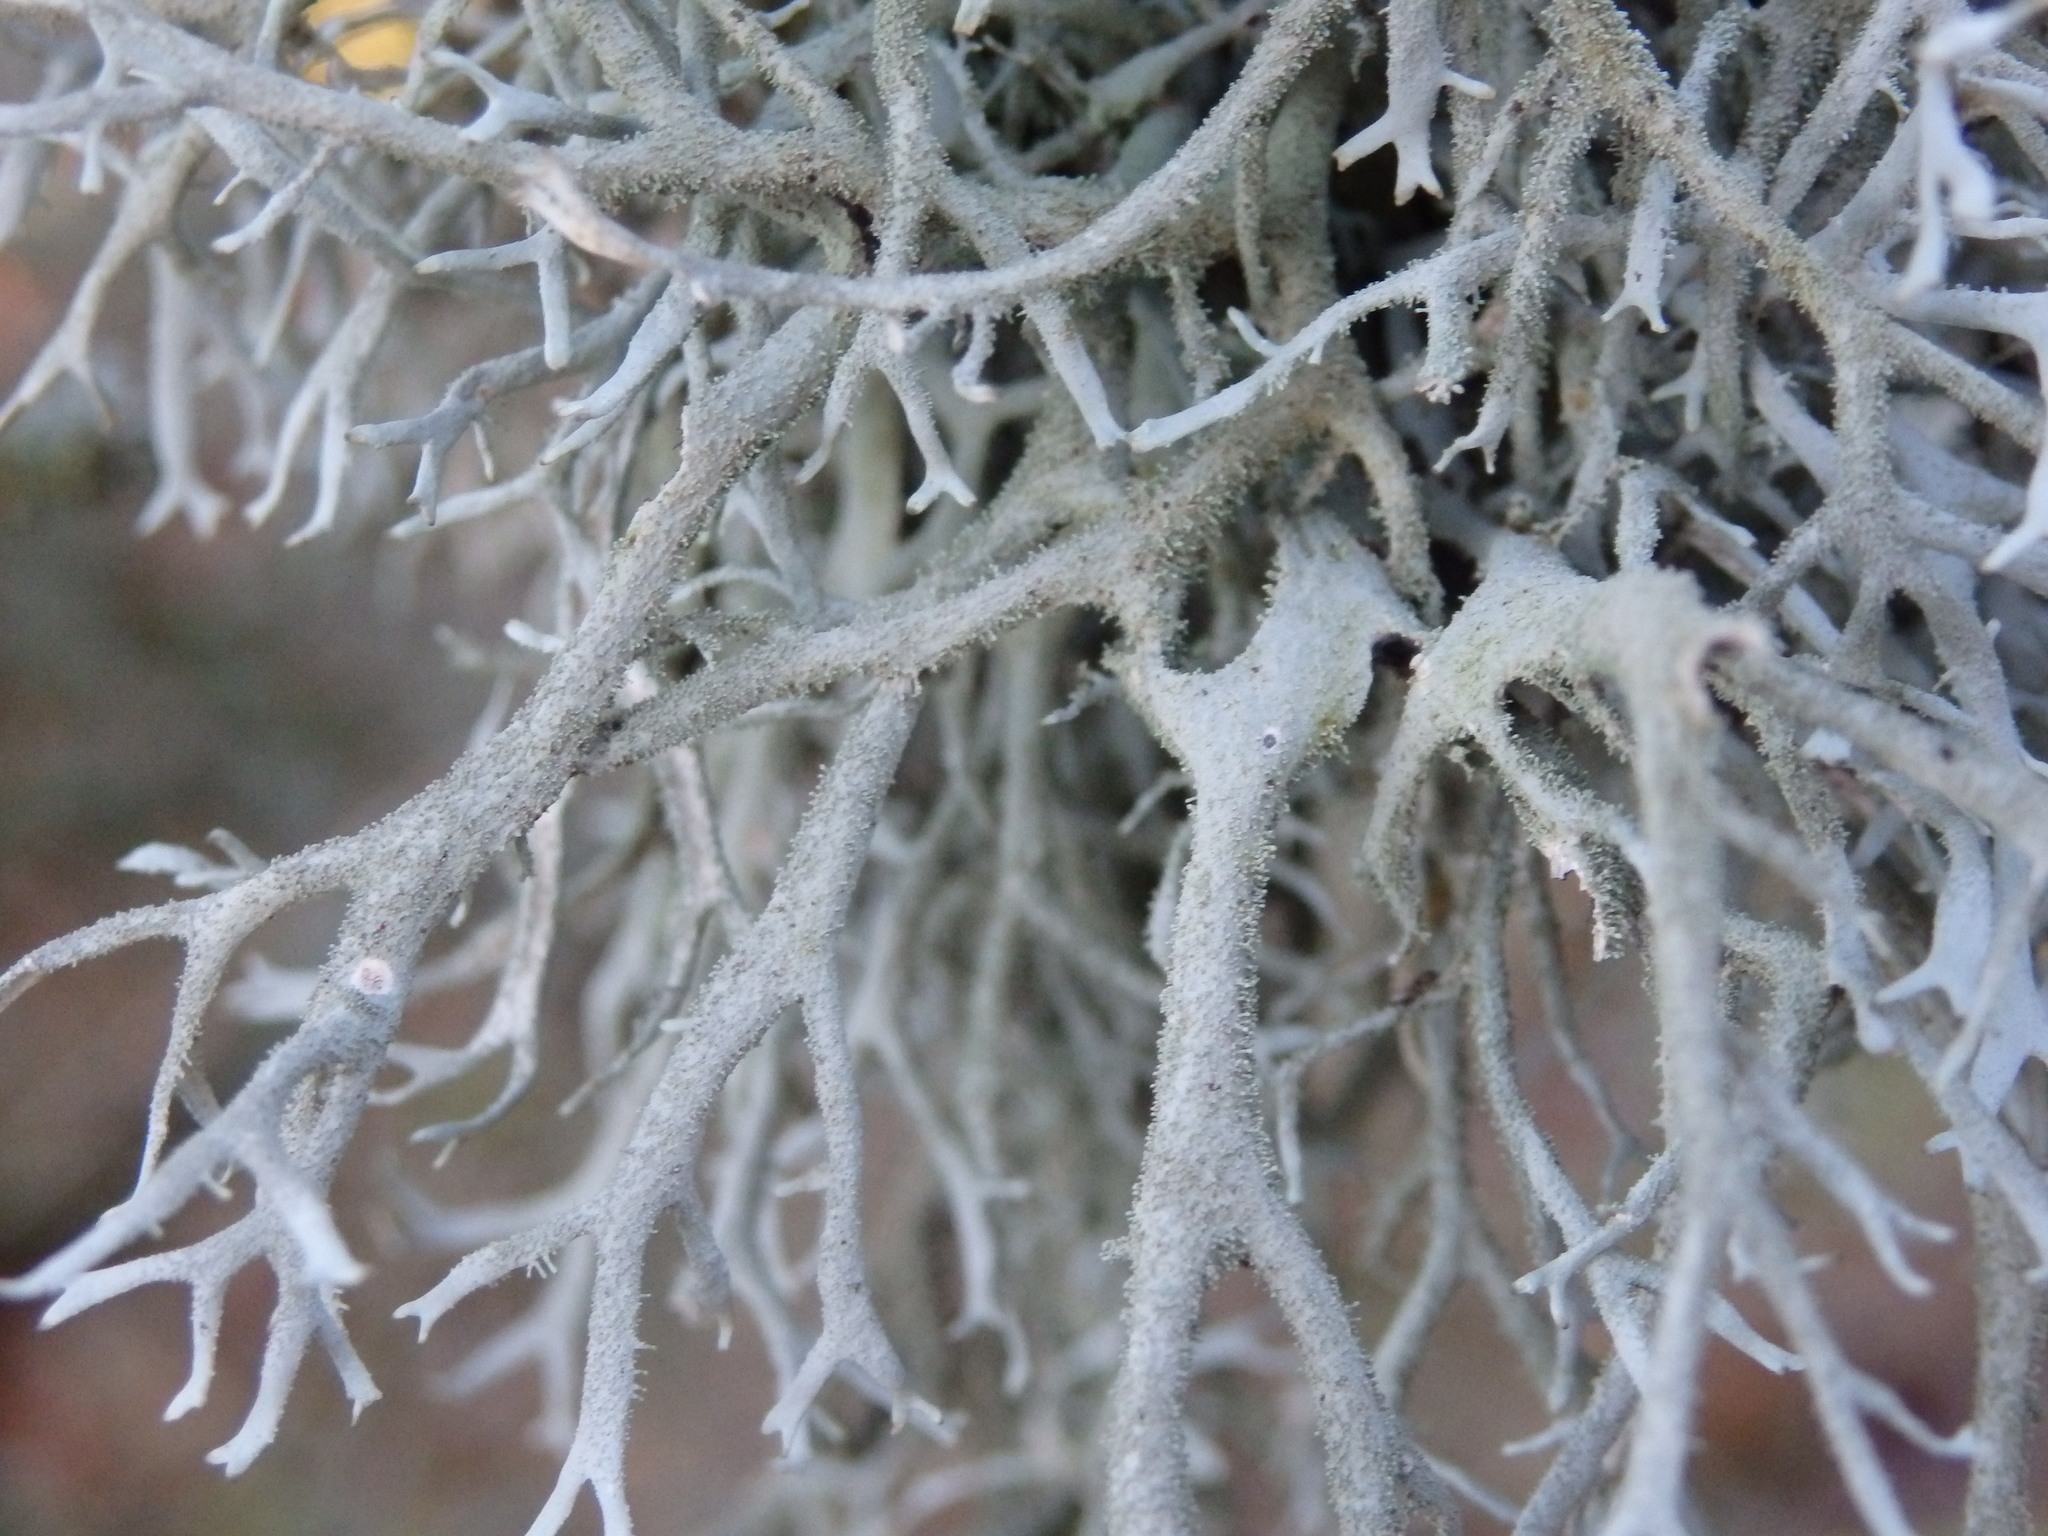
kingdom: Fungi
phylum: Ascomycota
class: Lecanoromycetes
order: Lecanorales
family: Parmeliaceae
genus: Pseudevernia
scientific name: Pseudevernia furfuracea
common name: Tree moss
